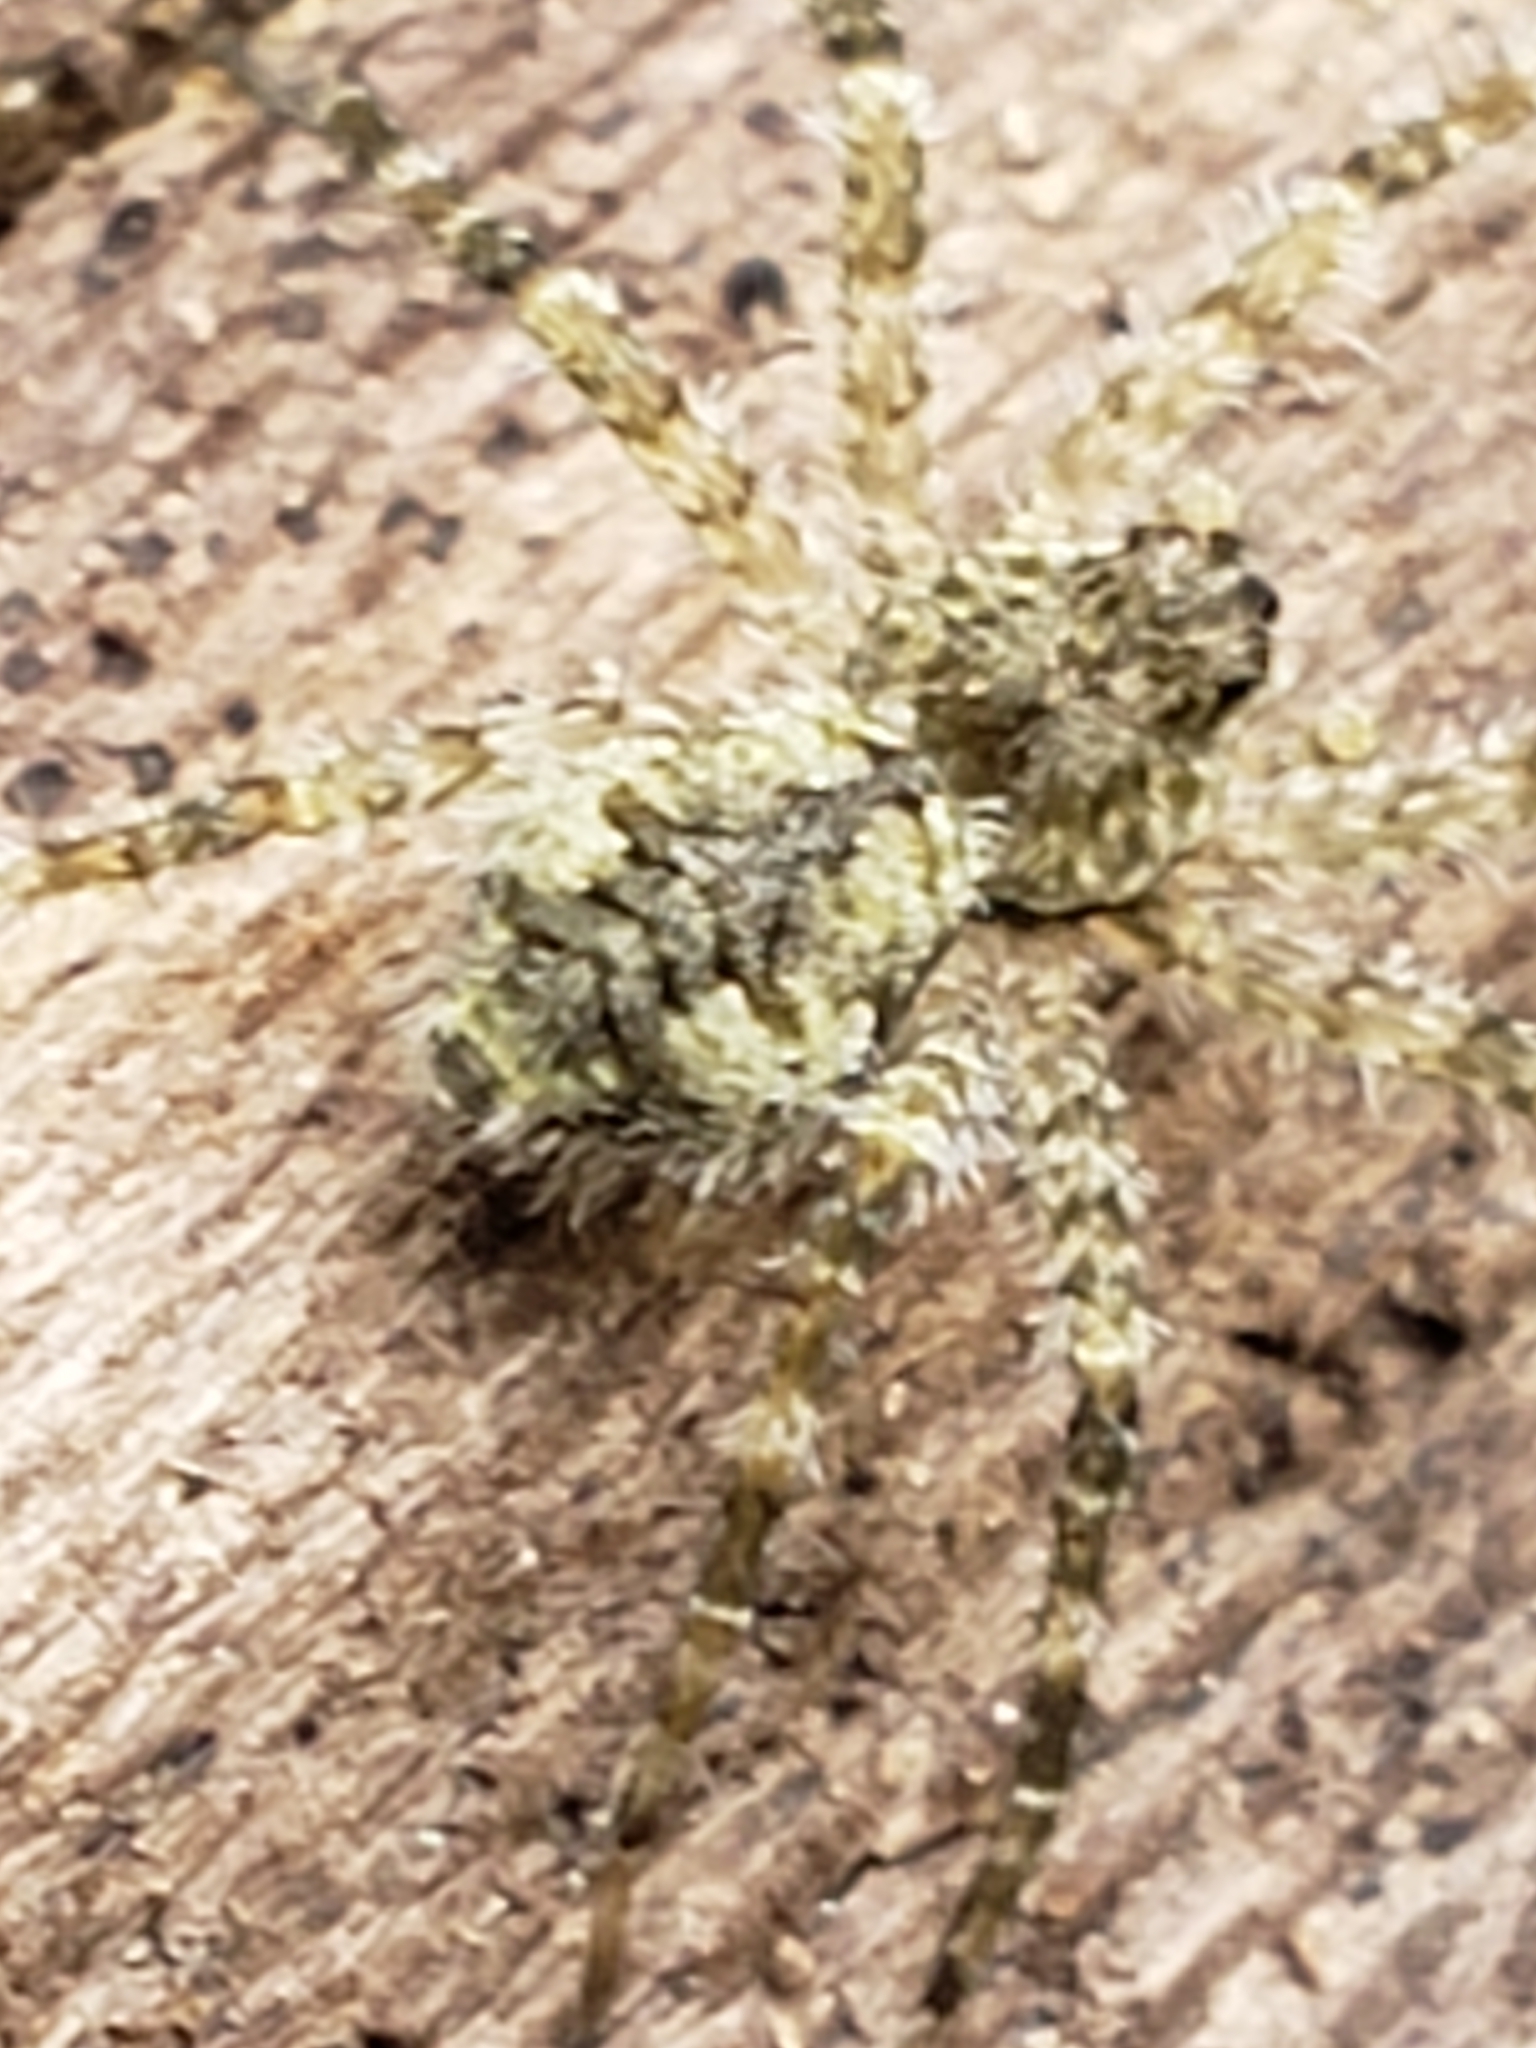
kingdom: Animalia
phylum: Arthropoda
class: Arachnida
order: Araneae
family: Pisauridae
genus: Dolomedes
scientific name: Dolomedes albineus
